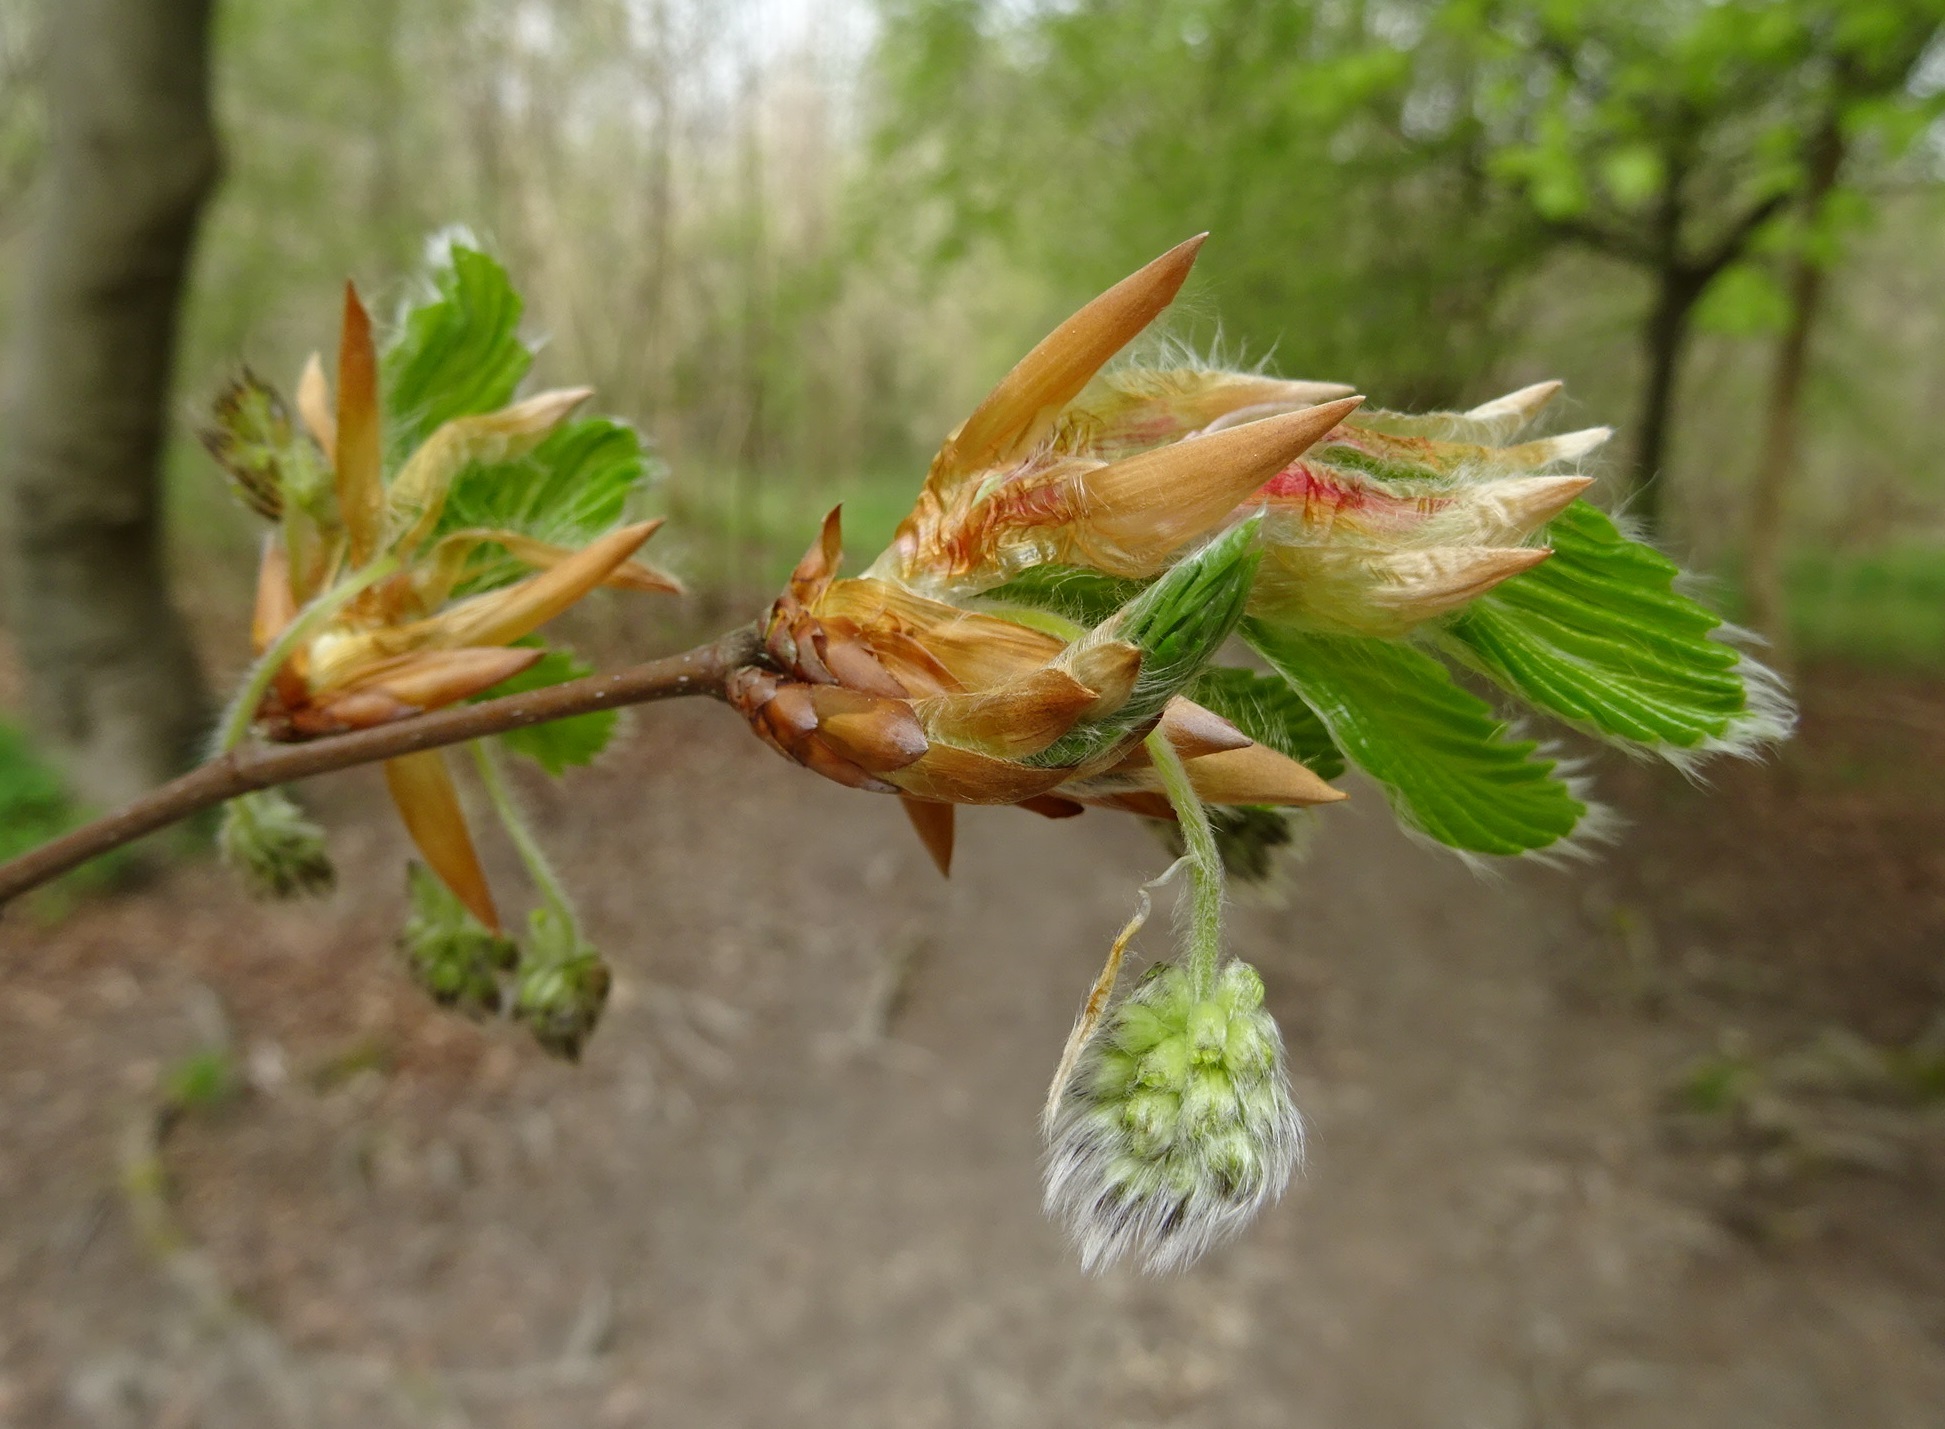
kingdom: Plantae
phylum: Tracheophyta
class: Magnoliopsida
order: Fagales
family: Fagaceae
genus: Fagus
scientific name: Fagus sylvatica
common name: Beech
